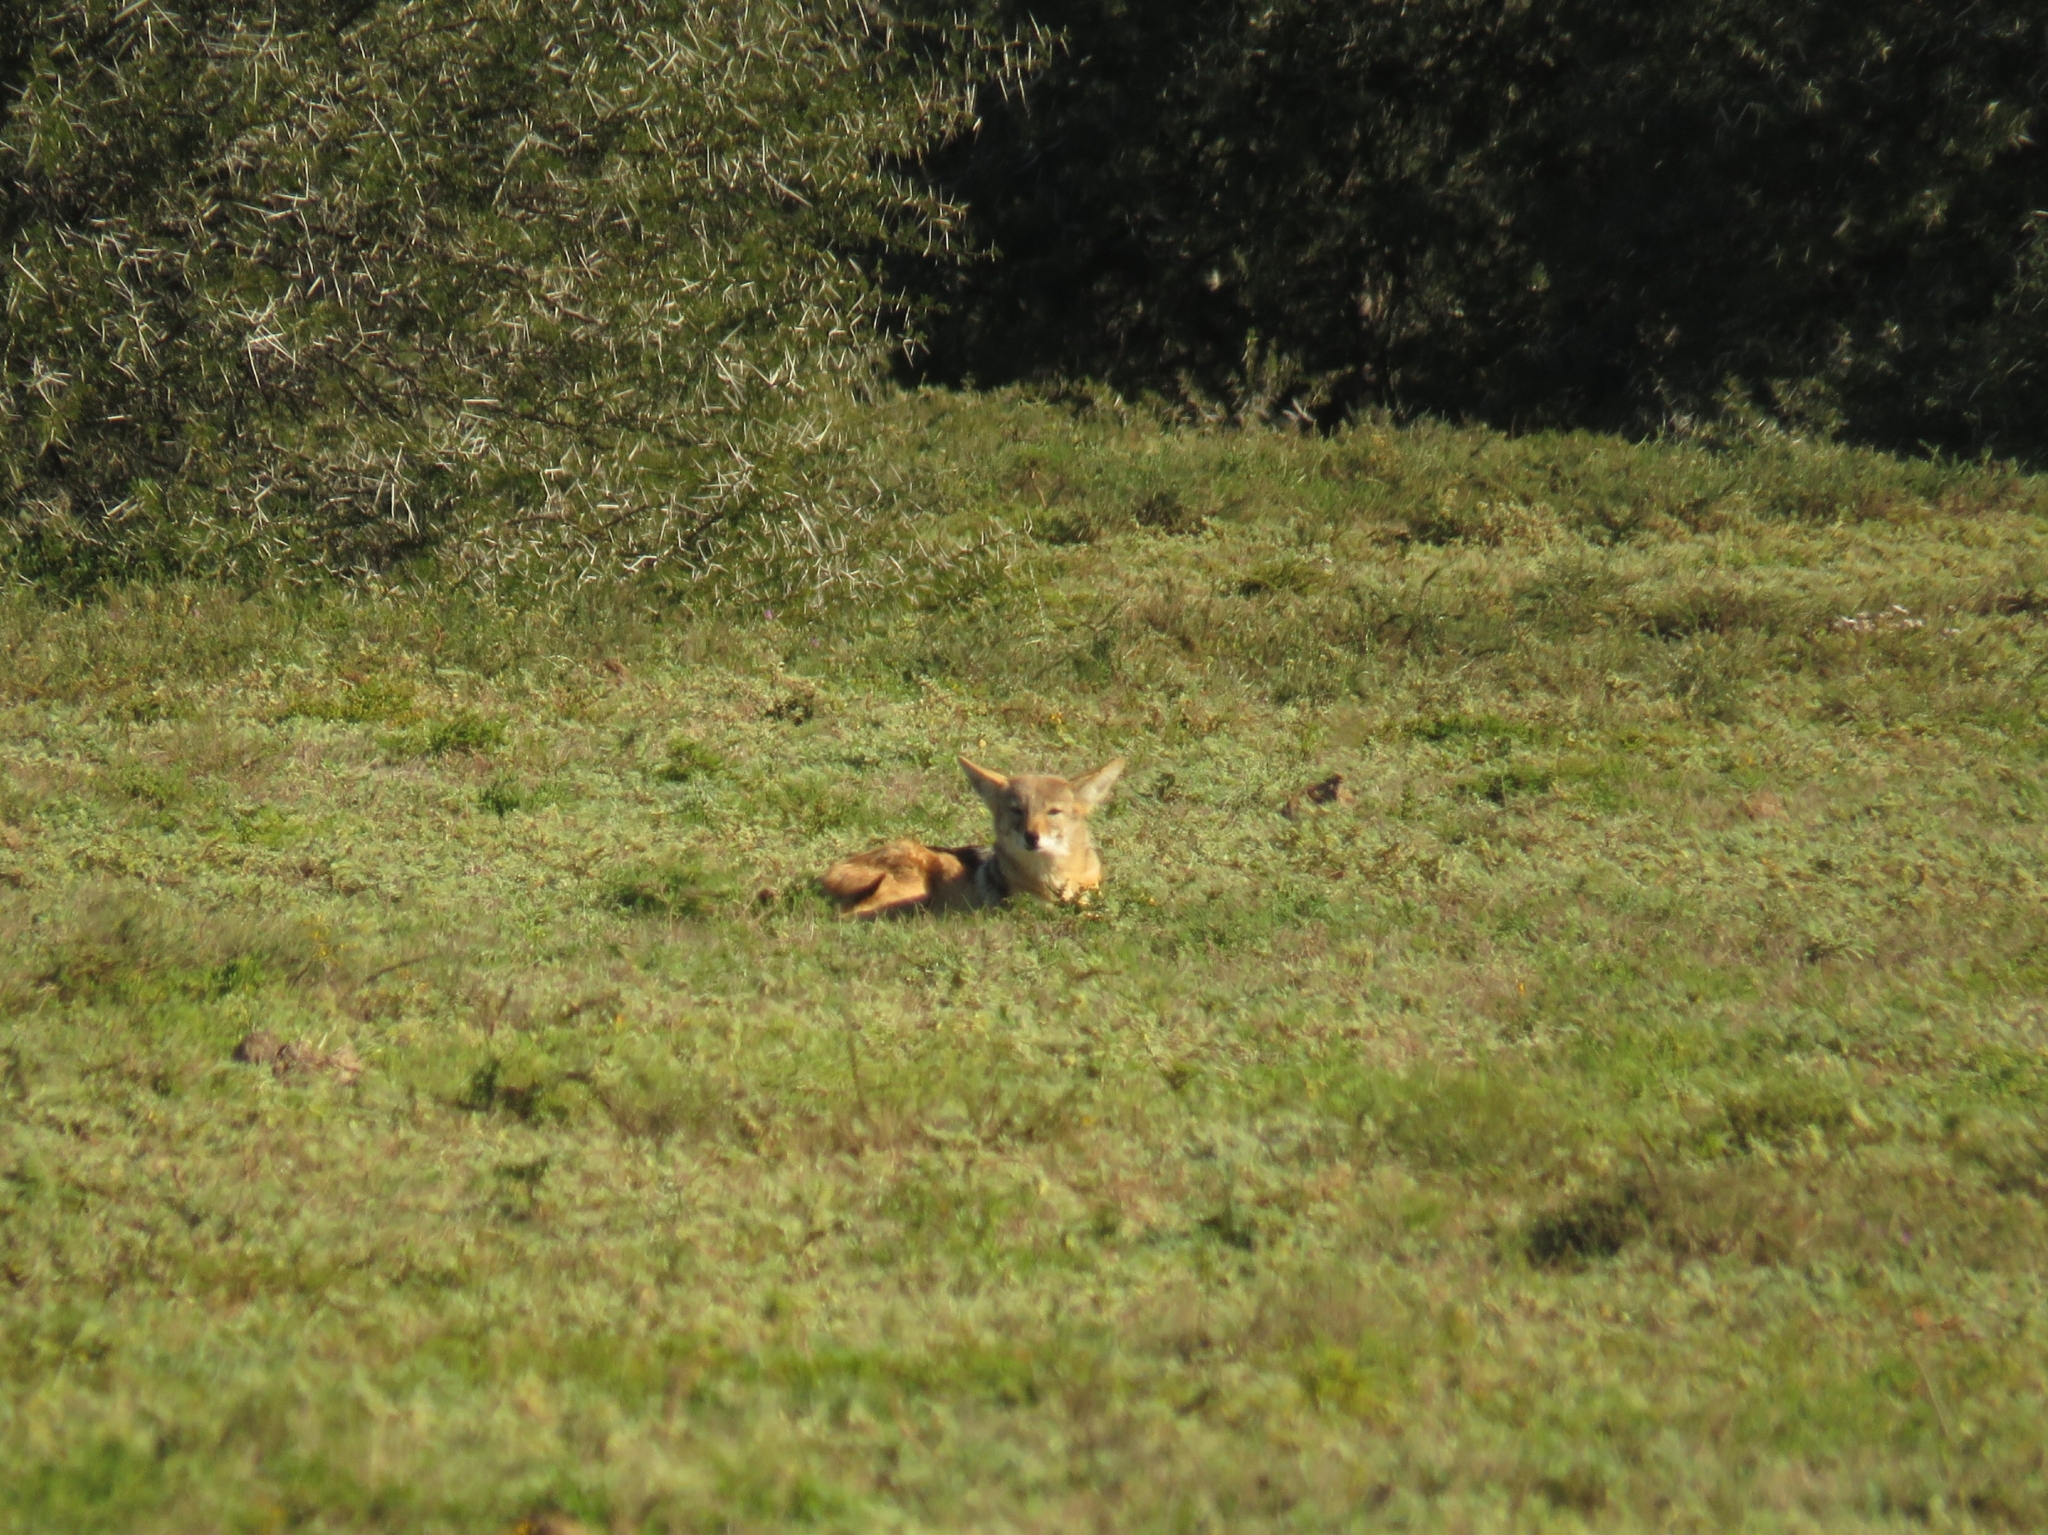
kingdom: Animalia
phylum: Chordata
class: Mammalia
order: Carnivora
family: Canidae
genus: Lupulella
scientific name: Lupulella
